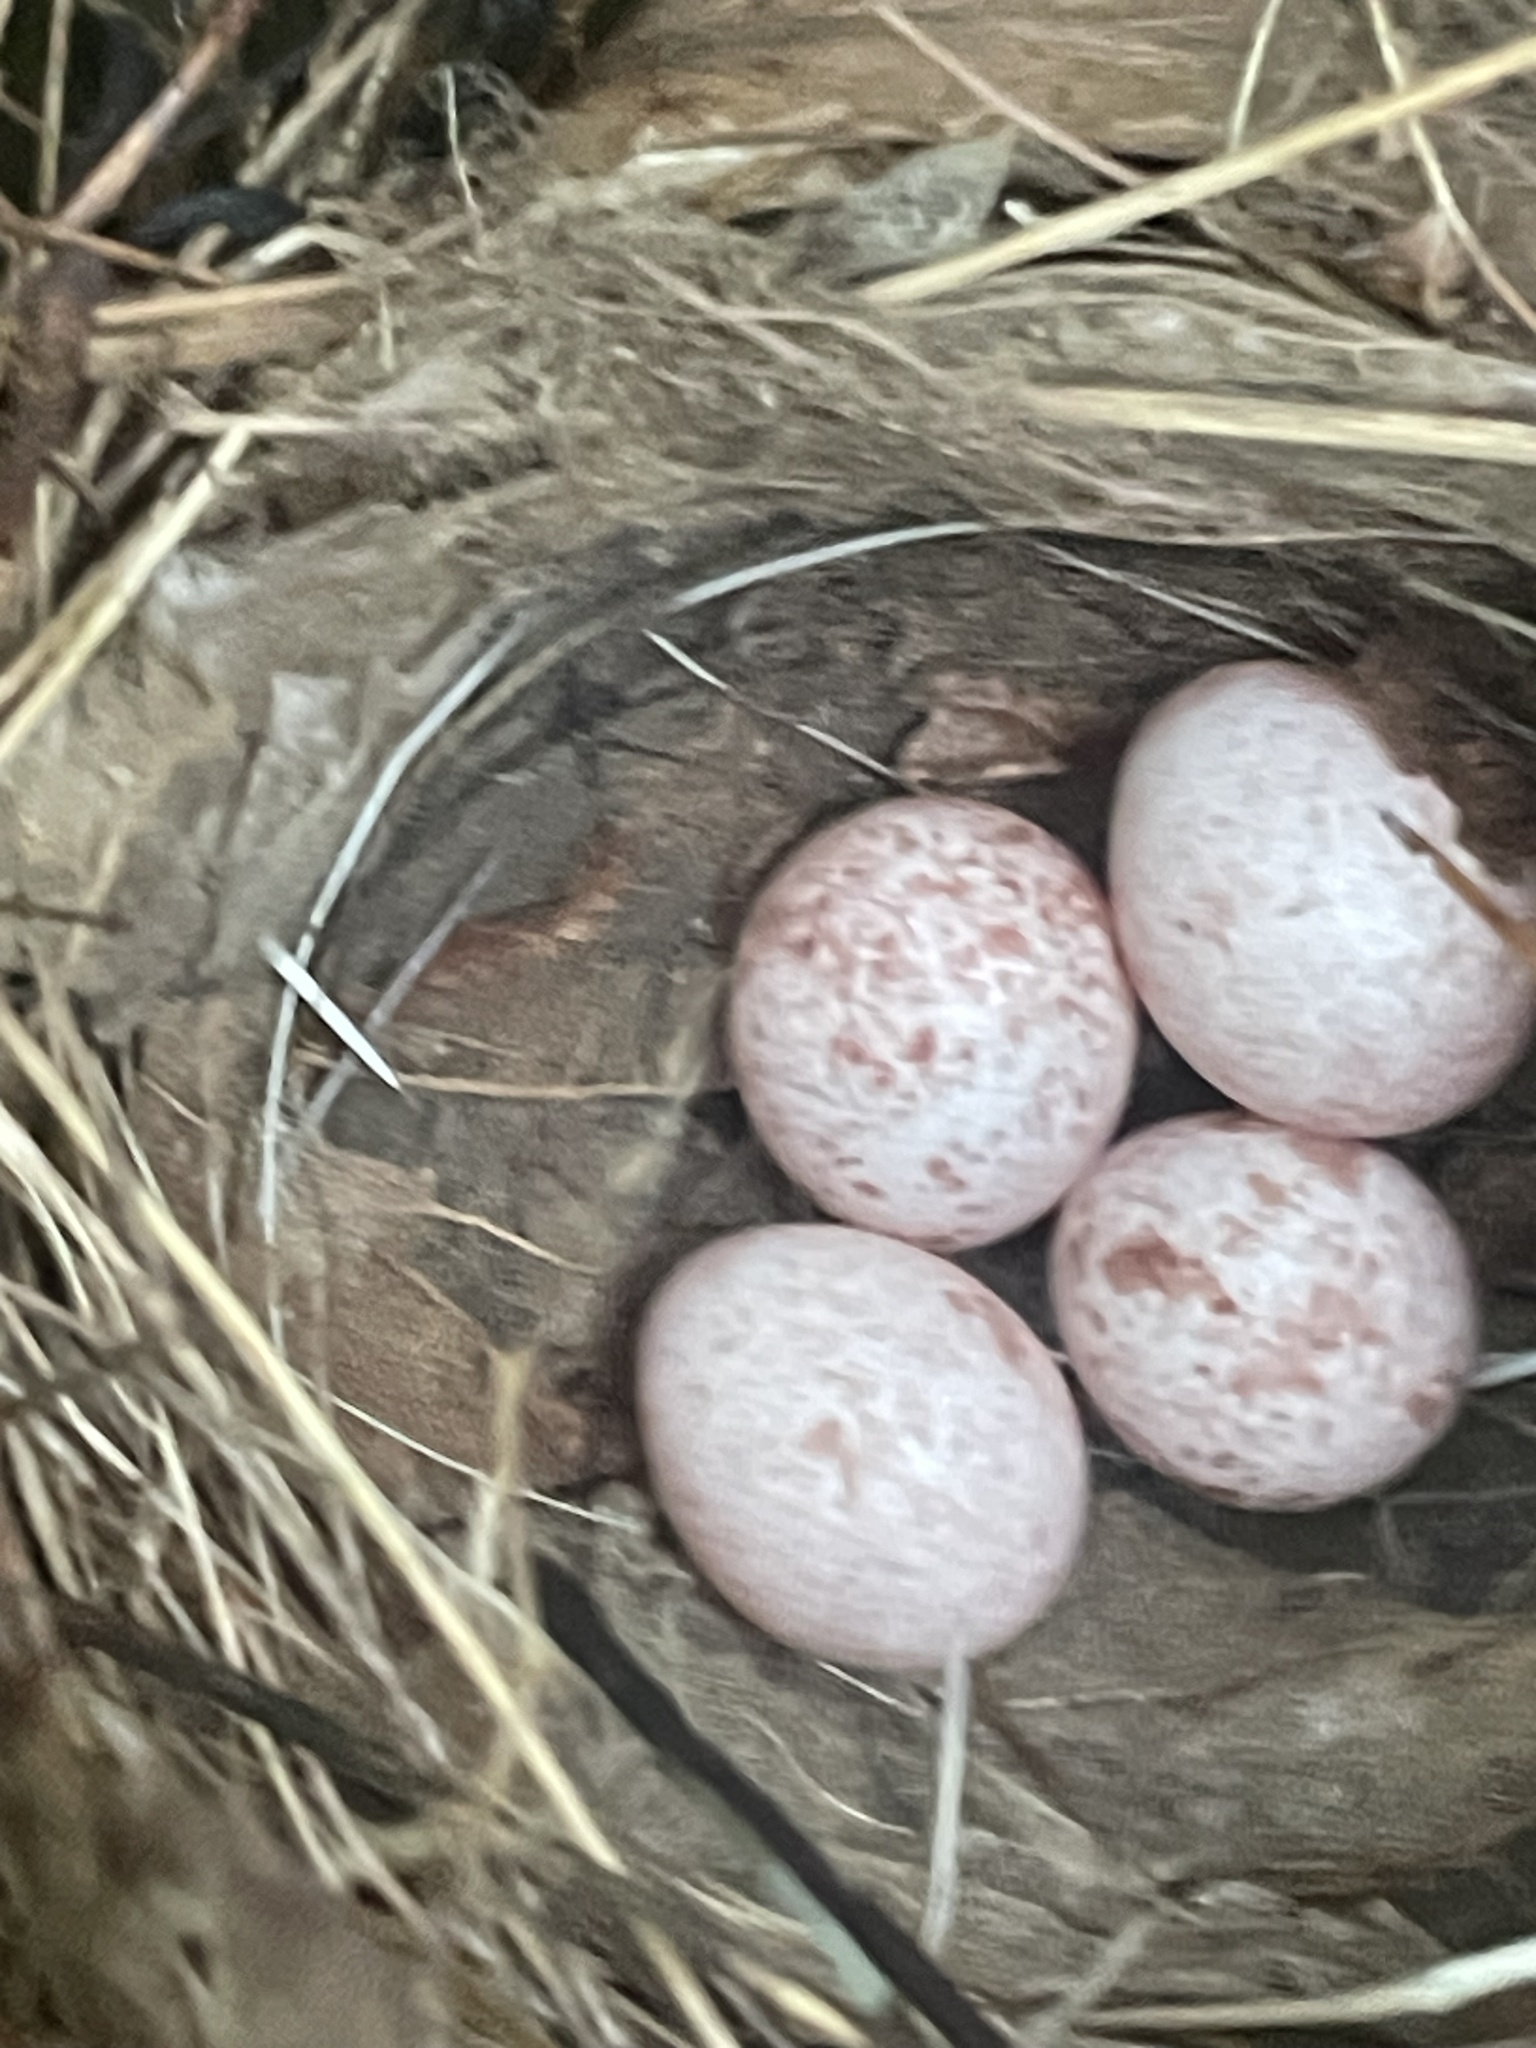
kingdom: Animalia
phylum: Chordata
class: Aves
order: Passeriformes
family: Parulidae
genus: Seiurus
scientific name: Seiurus aurocapilla
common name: Ovenbird
